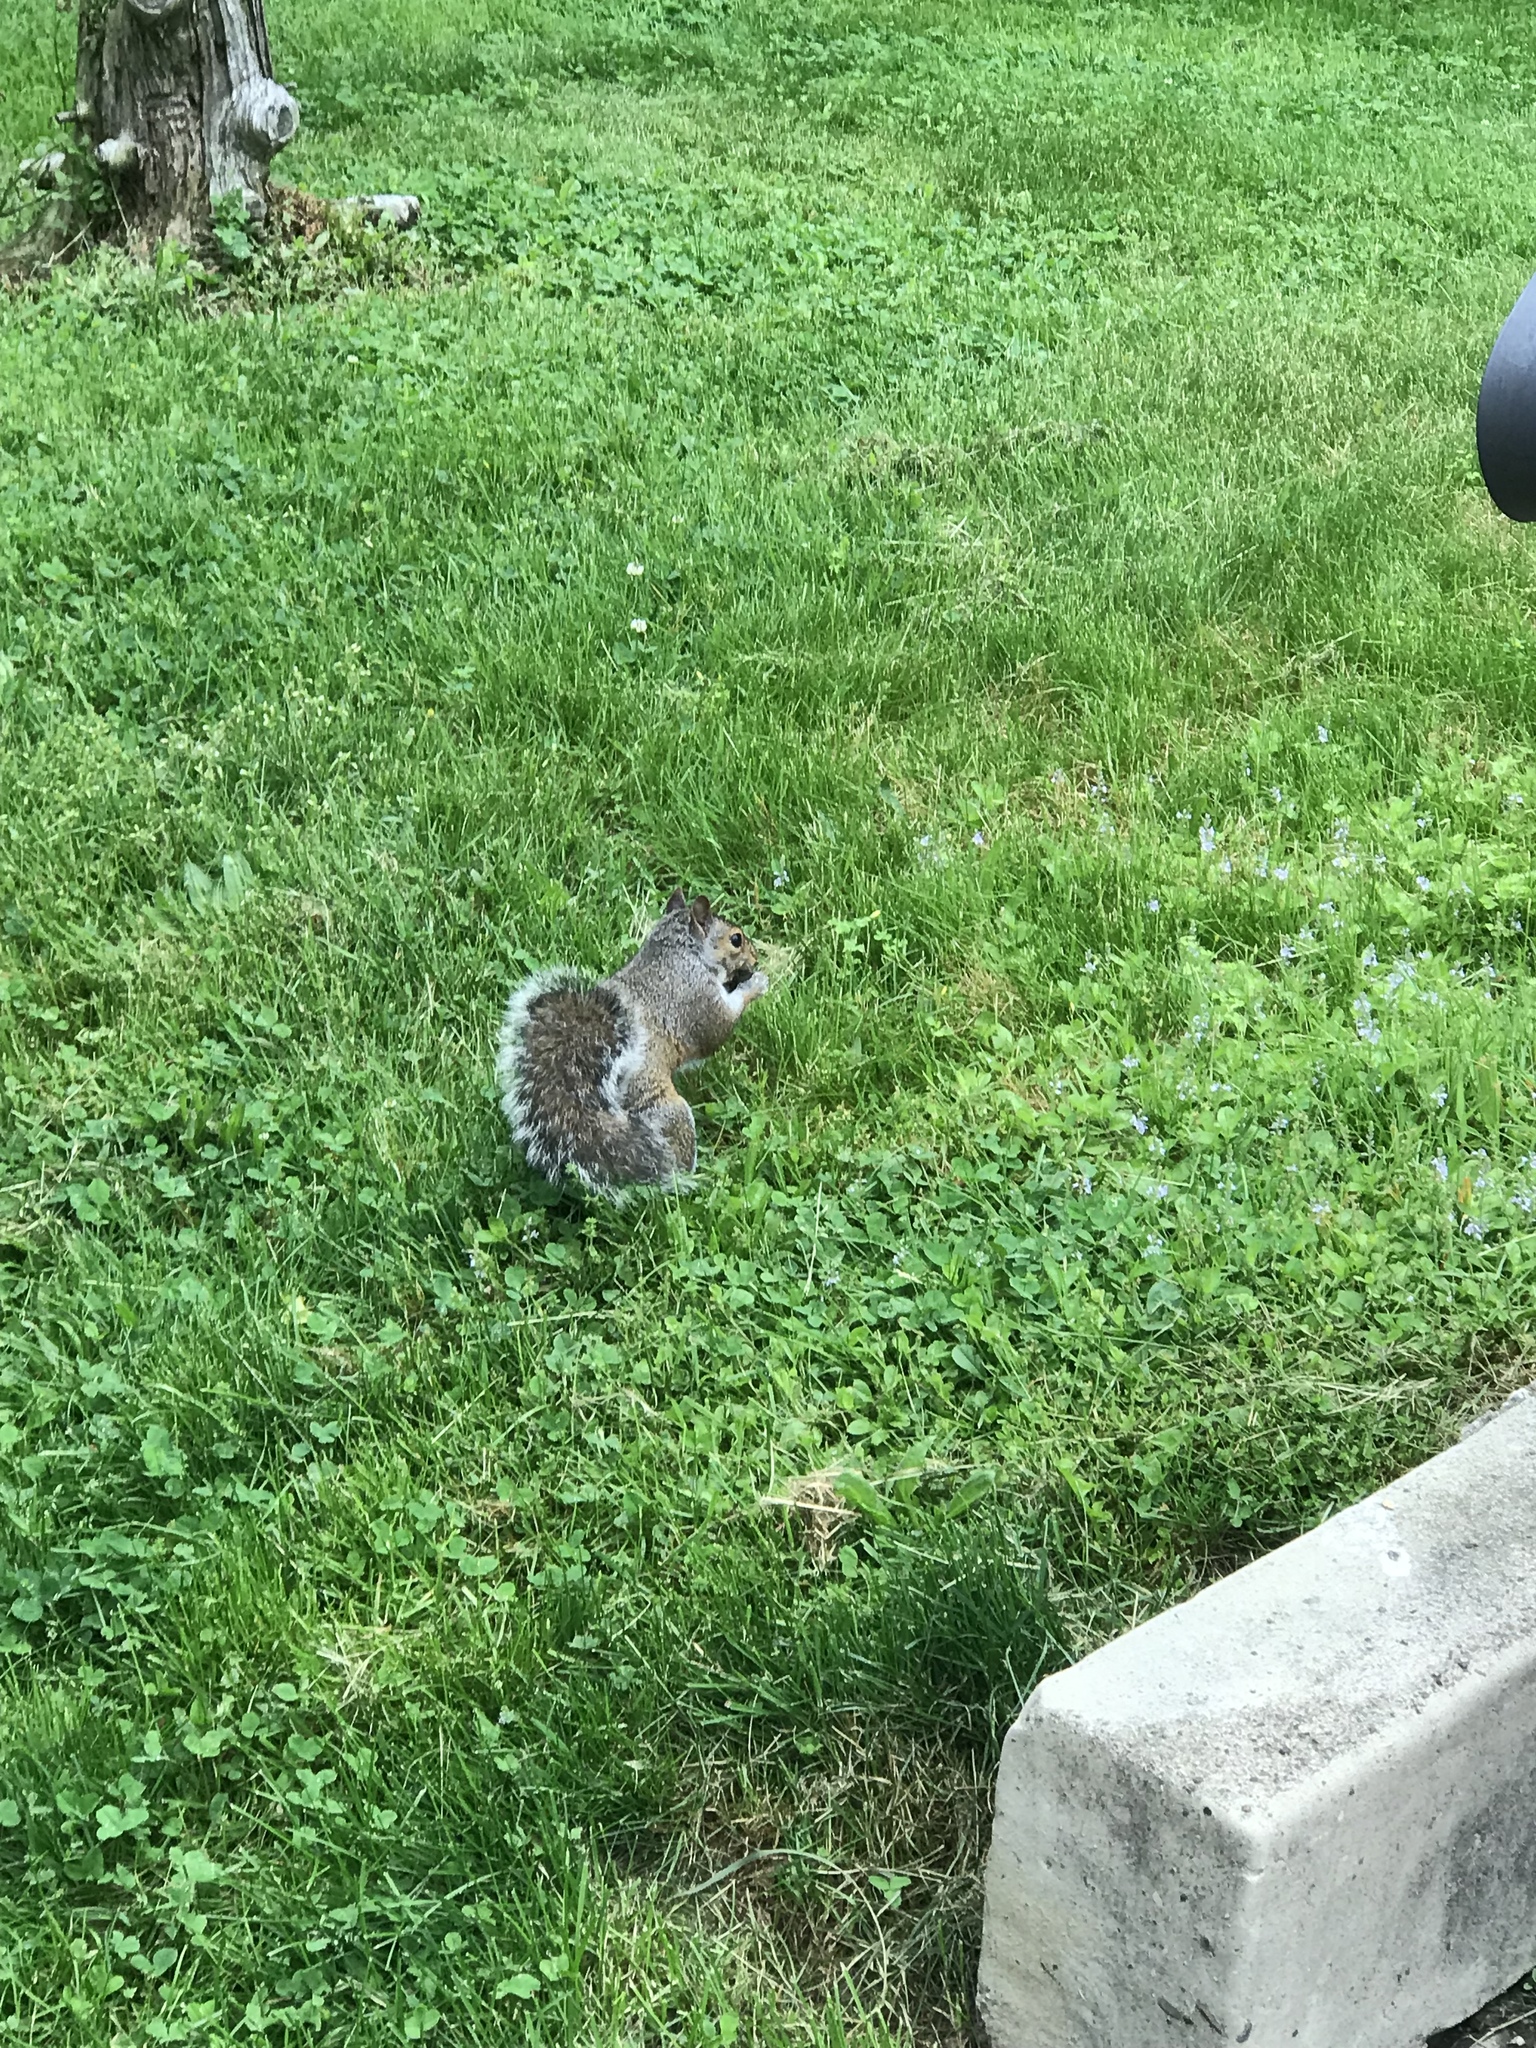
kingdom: Animalia
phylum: Chordata
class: Mammalia
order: Rodentia
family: Sciuridae
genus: Sciurus
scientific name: Sciurus carolinensis
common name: Eastern gray squirrel
